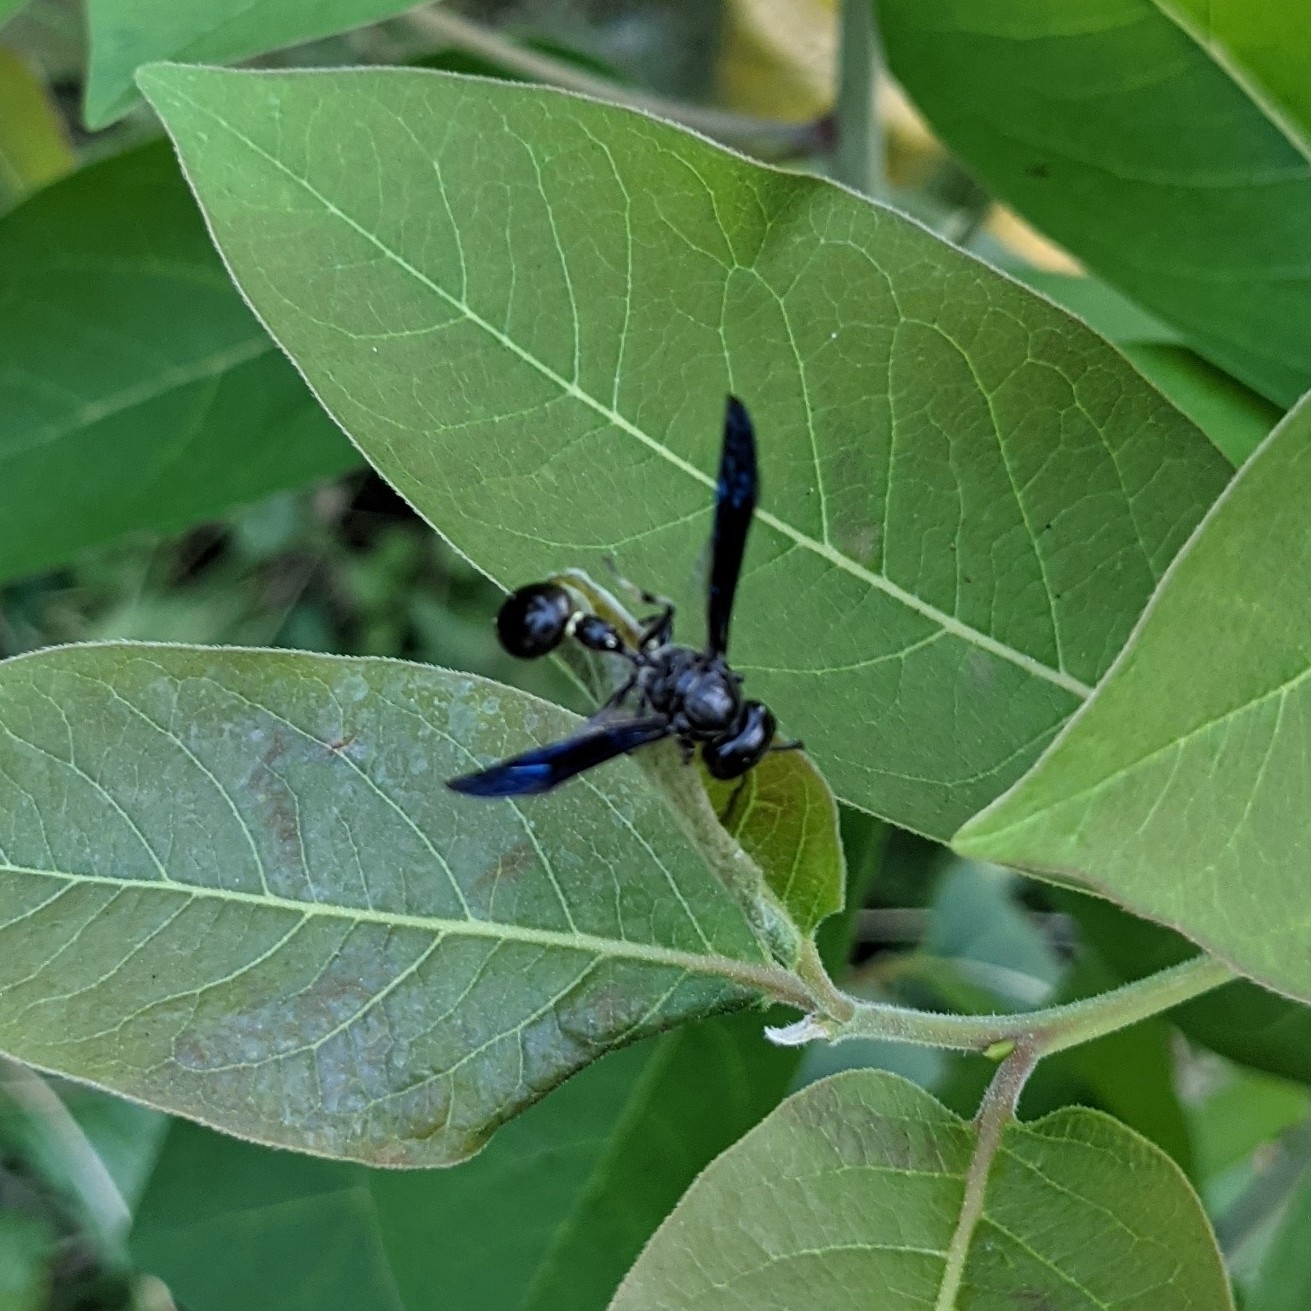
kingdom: Animalia
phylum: Arthropoda
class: Insecta
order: Hymenoptera
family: Eumenidae
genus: Zethus
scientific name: Zethus spinipes
